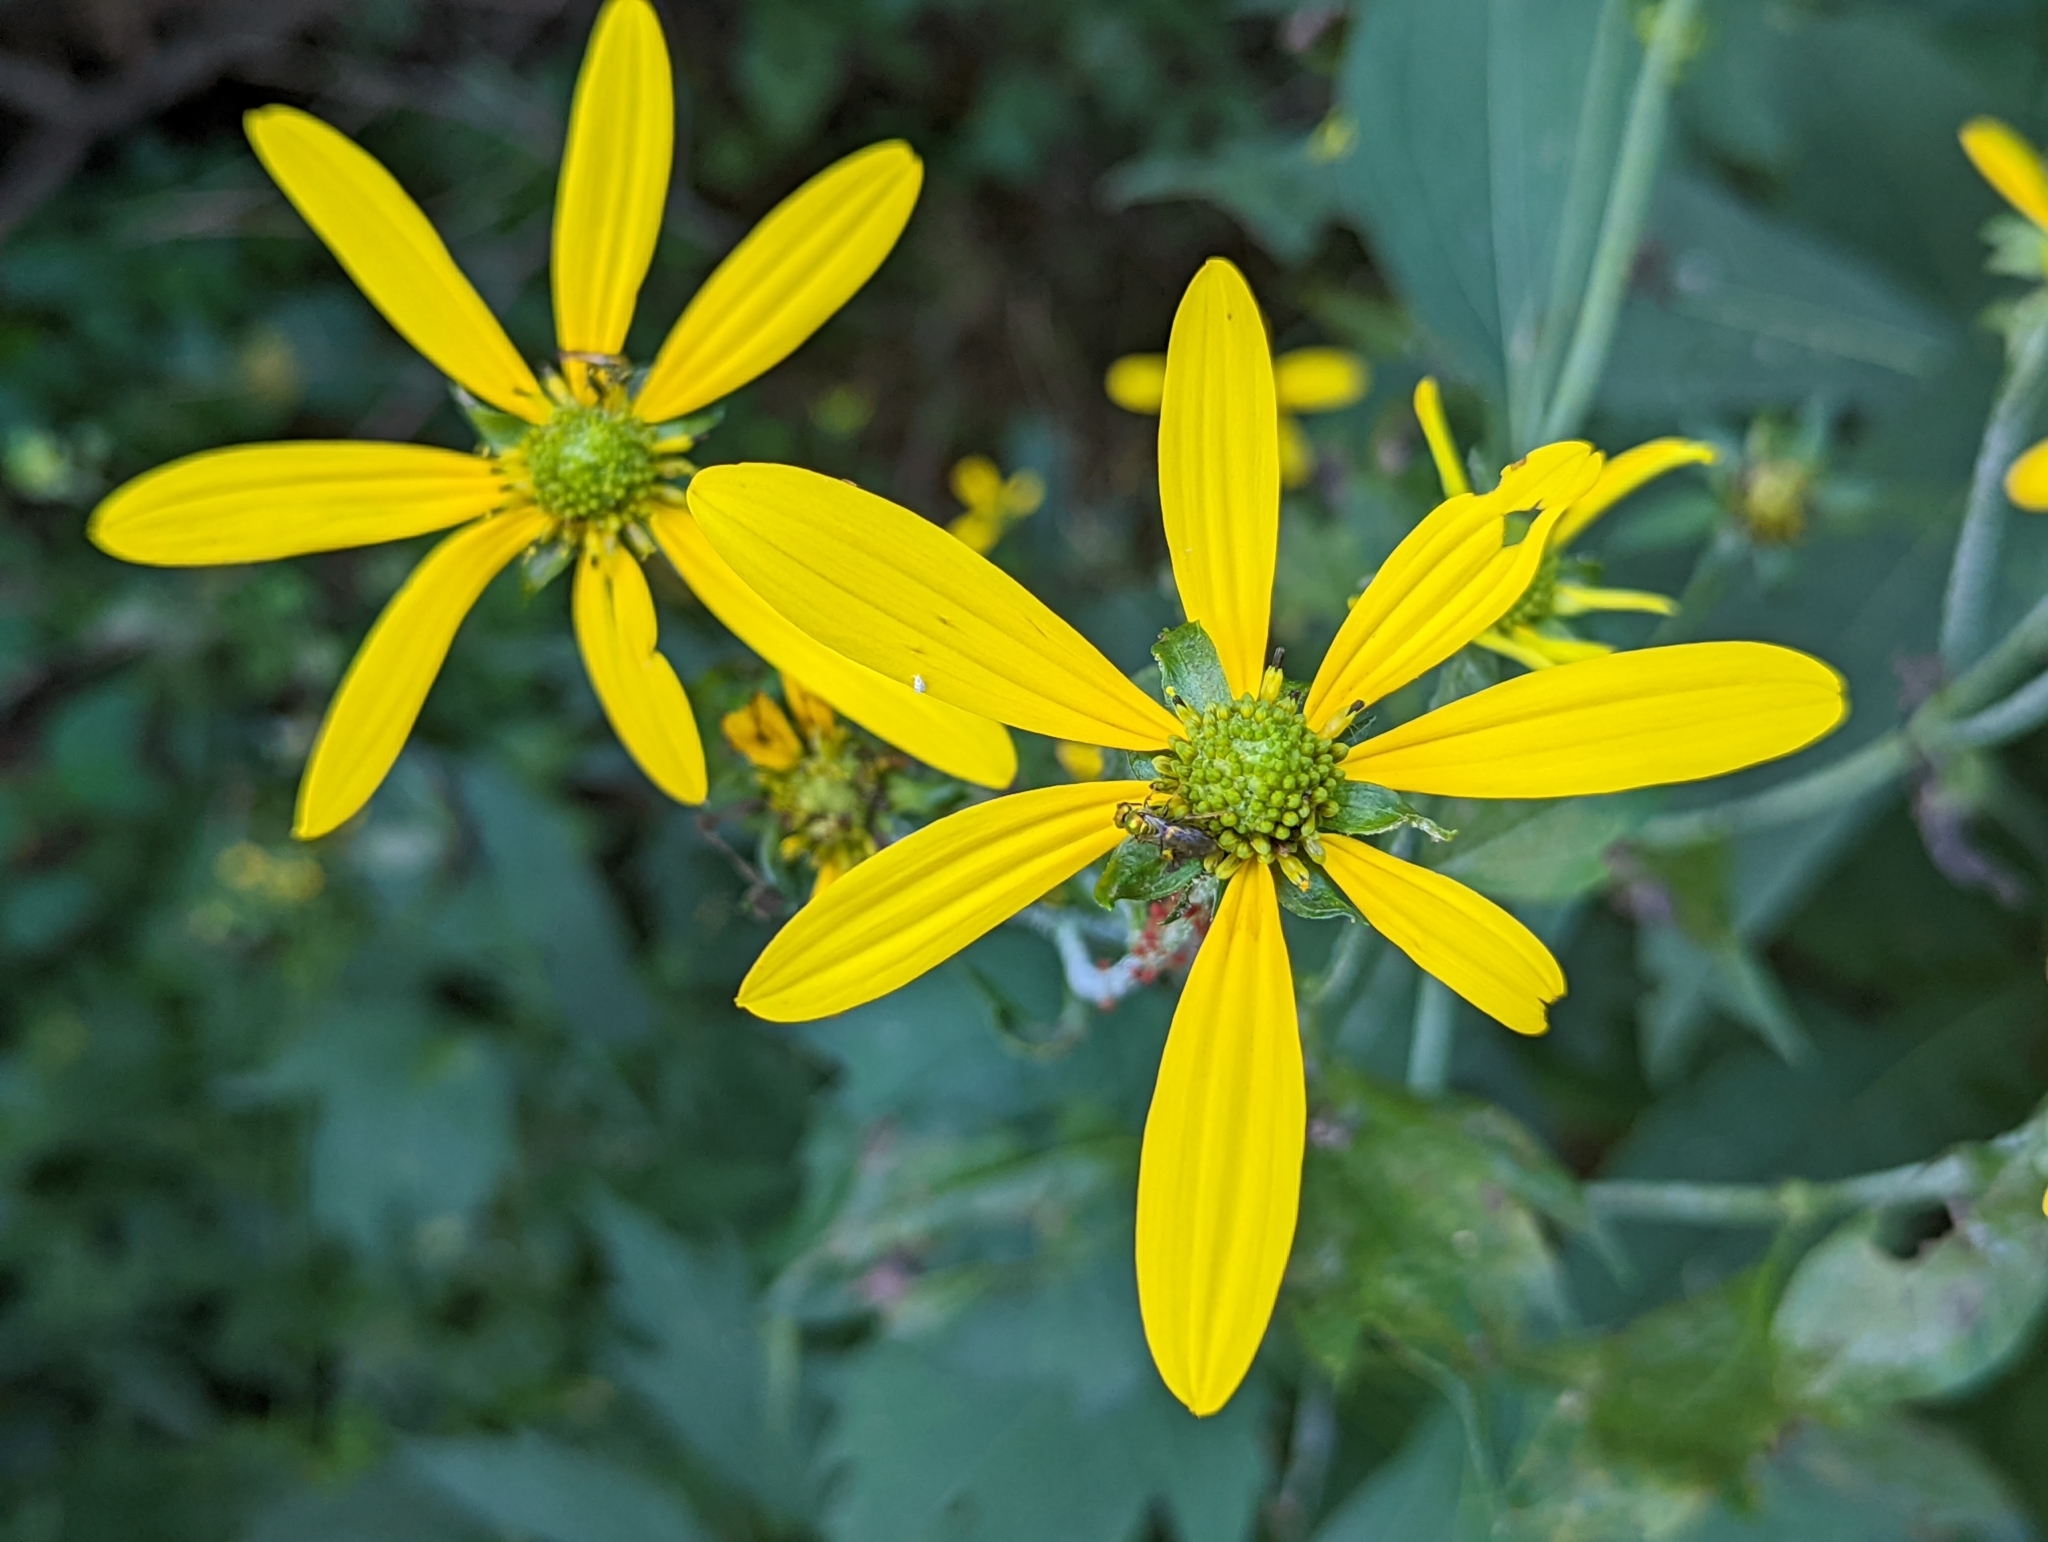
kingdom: Plantae
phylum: Tracheophyta
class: Magnoliopsida
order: Asterales
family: Asteraceae
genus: Rudbeckia
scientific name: Rudbeckia laciniata
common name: Coneflower
